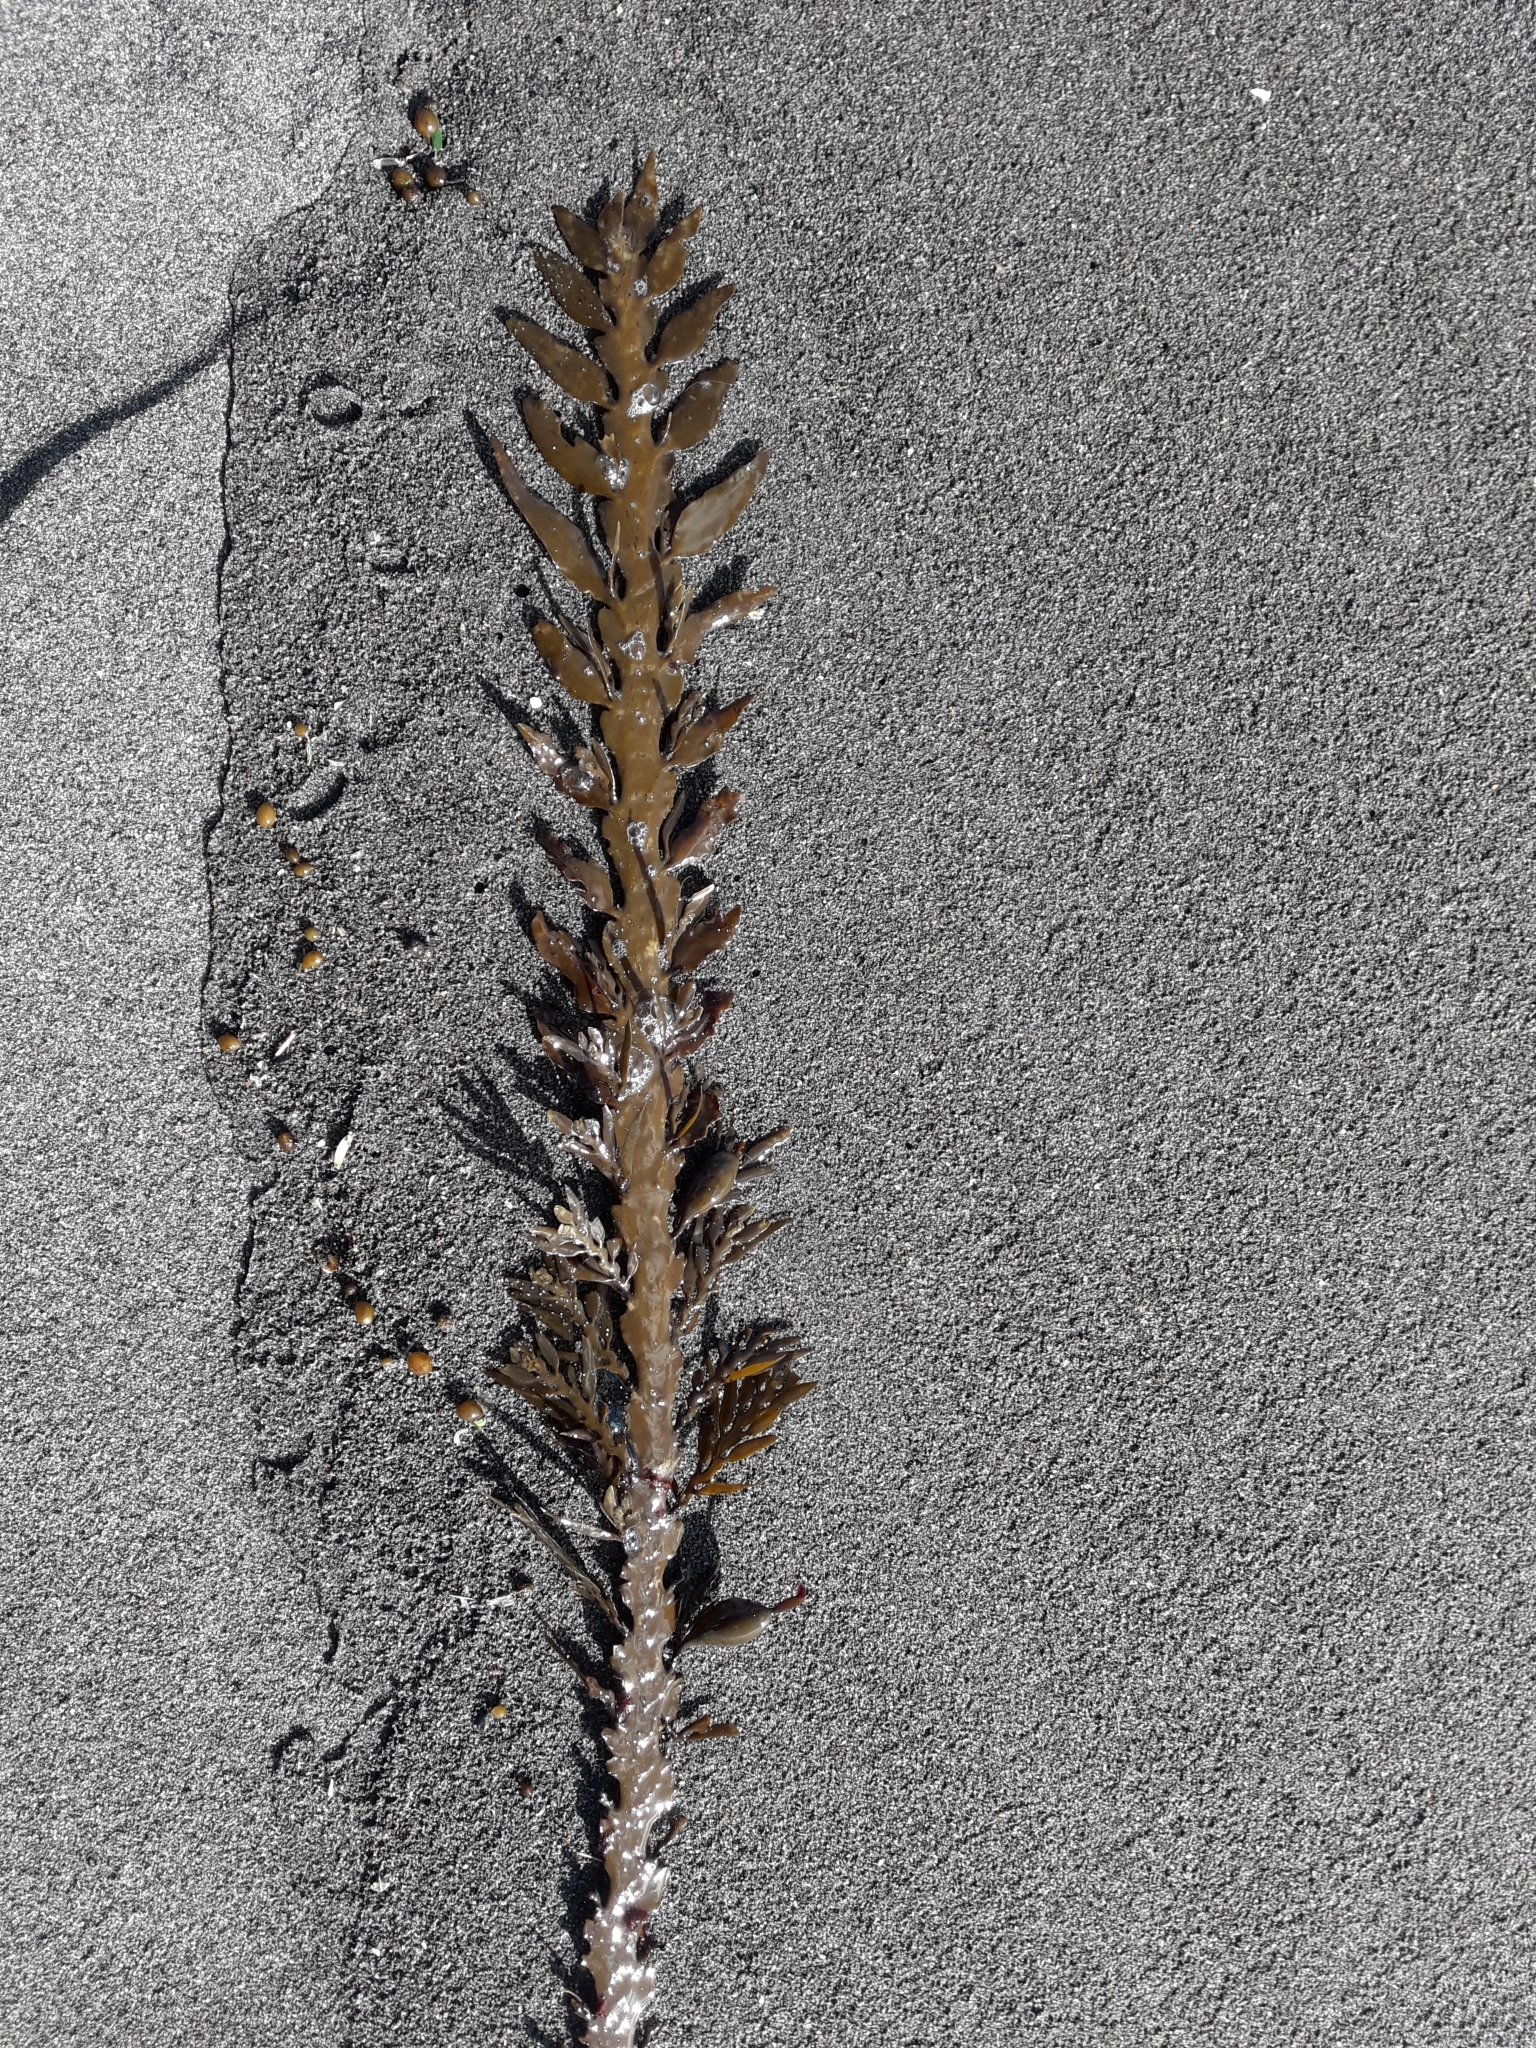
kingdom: Chromista
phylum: Ochrophyta
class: Phaeophyceae
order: Fucales
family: Sargassaceae
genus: Carpophyllum
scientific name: Carpophyllum maschalocarpum
